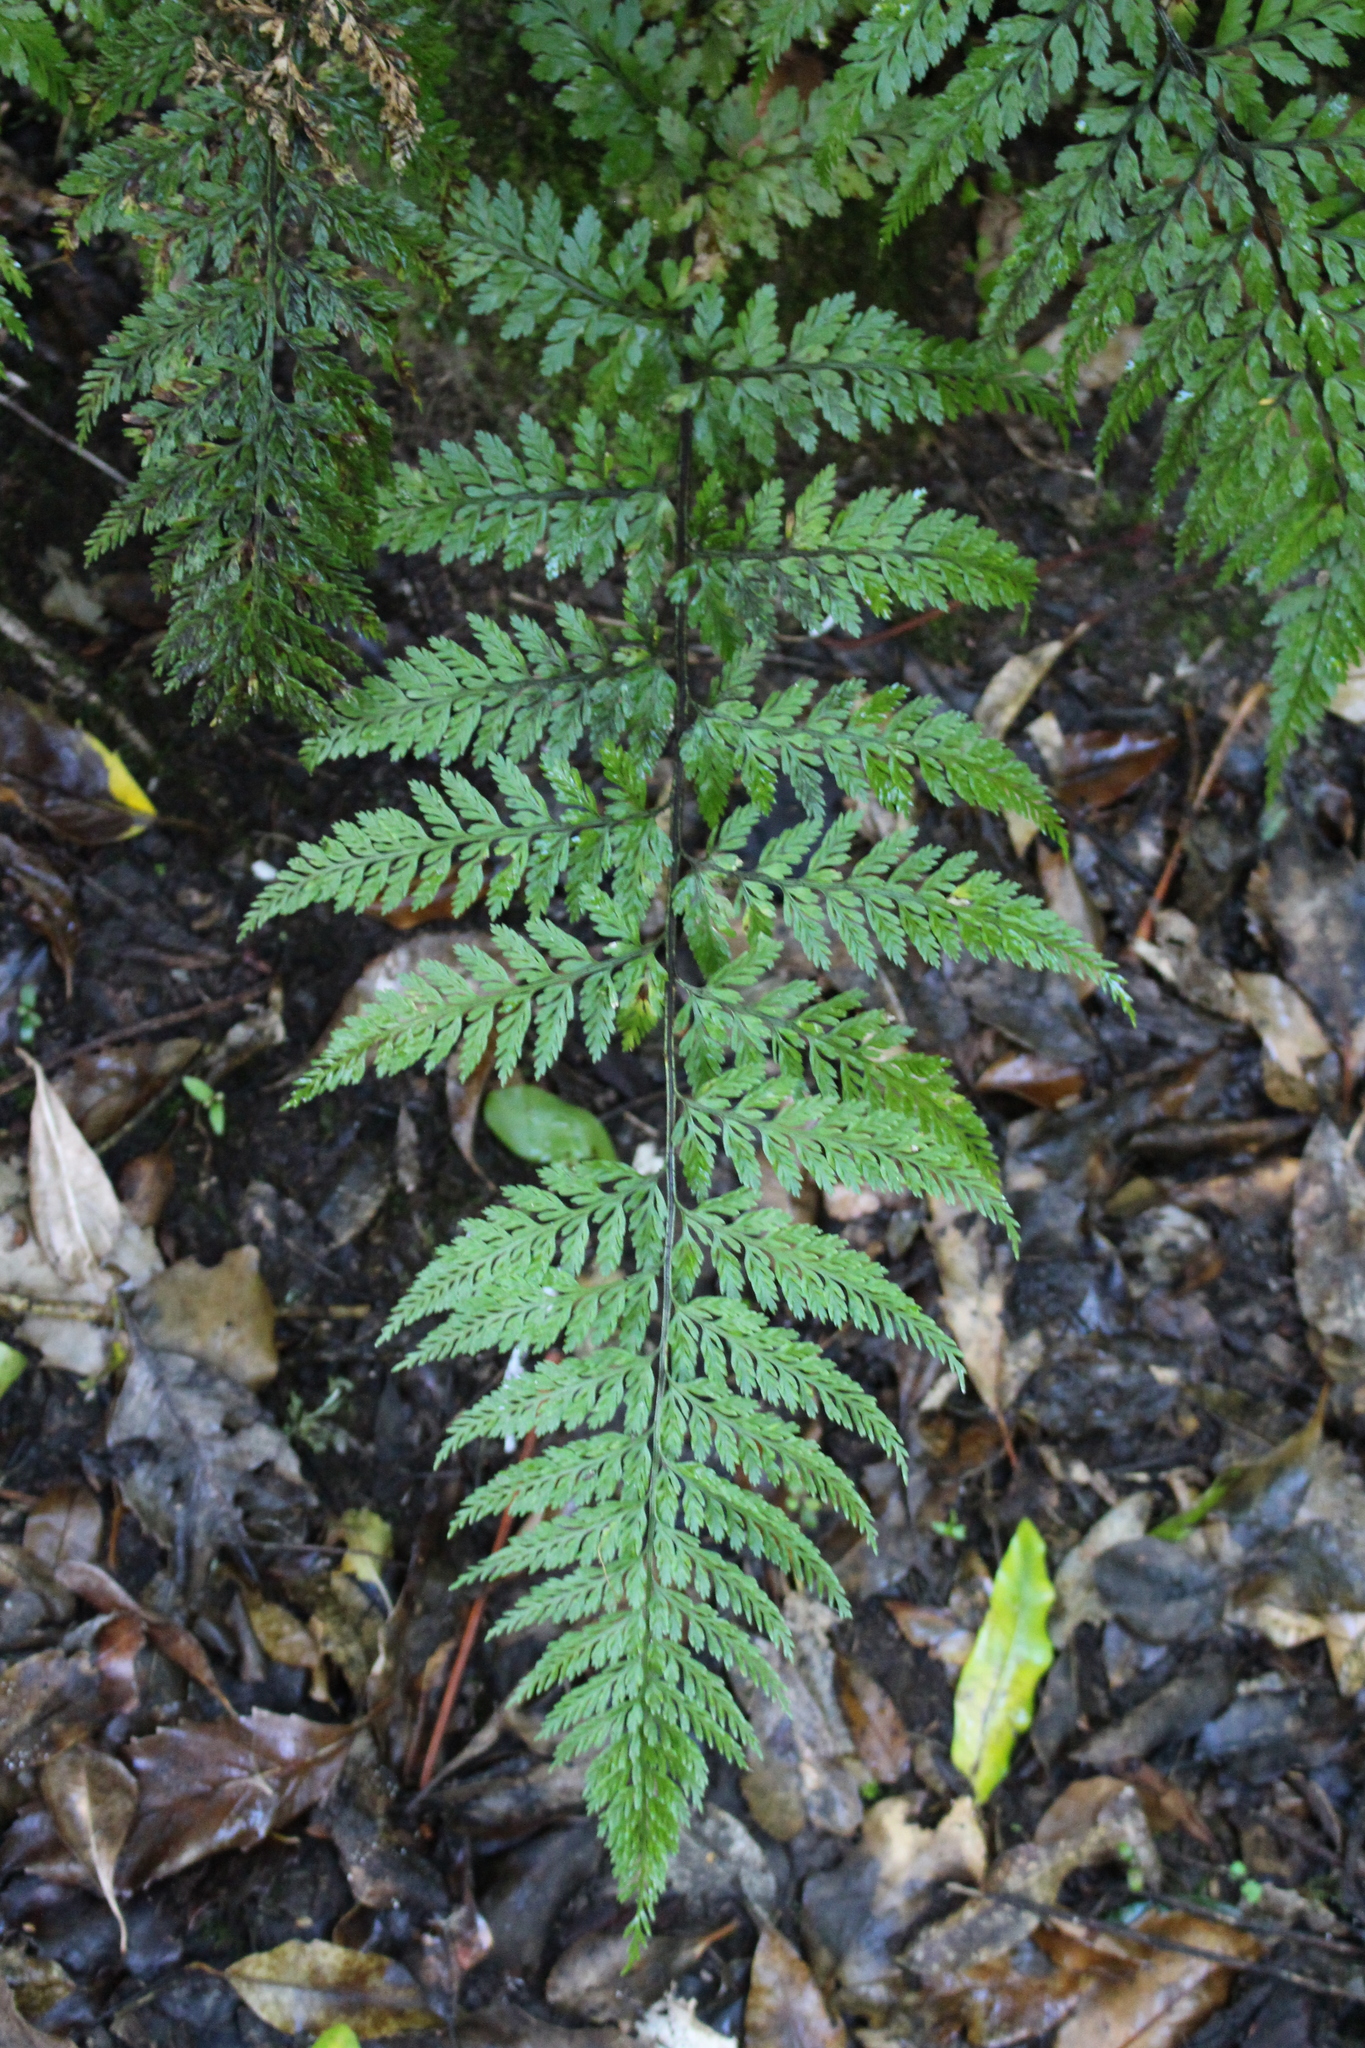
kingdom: Plantae
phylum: Tracheophyta
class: Polypodiopsida
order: Polypodiales
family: Aspleniaceae
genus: Asplenium
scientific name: Asplenium
